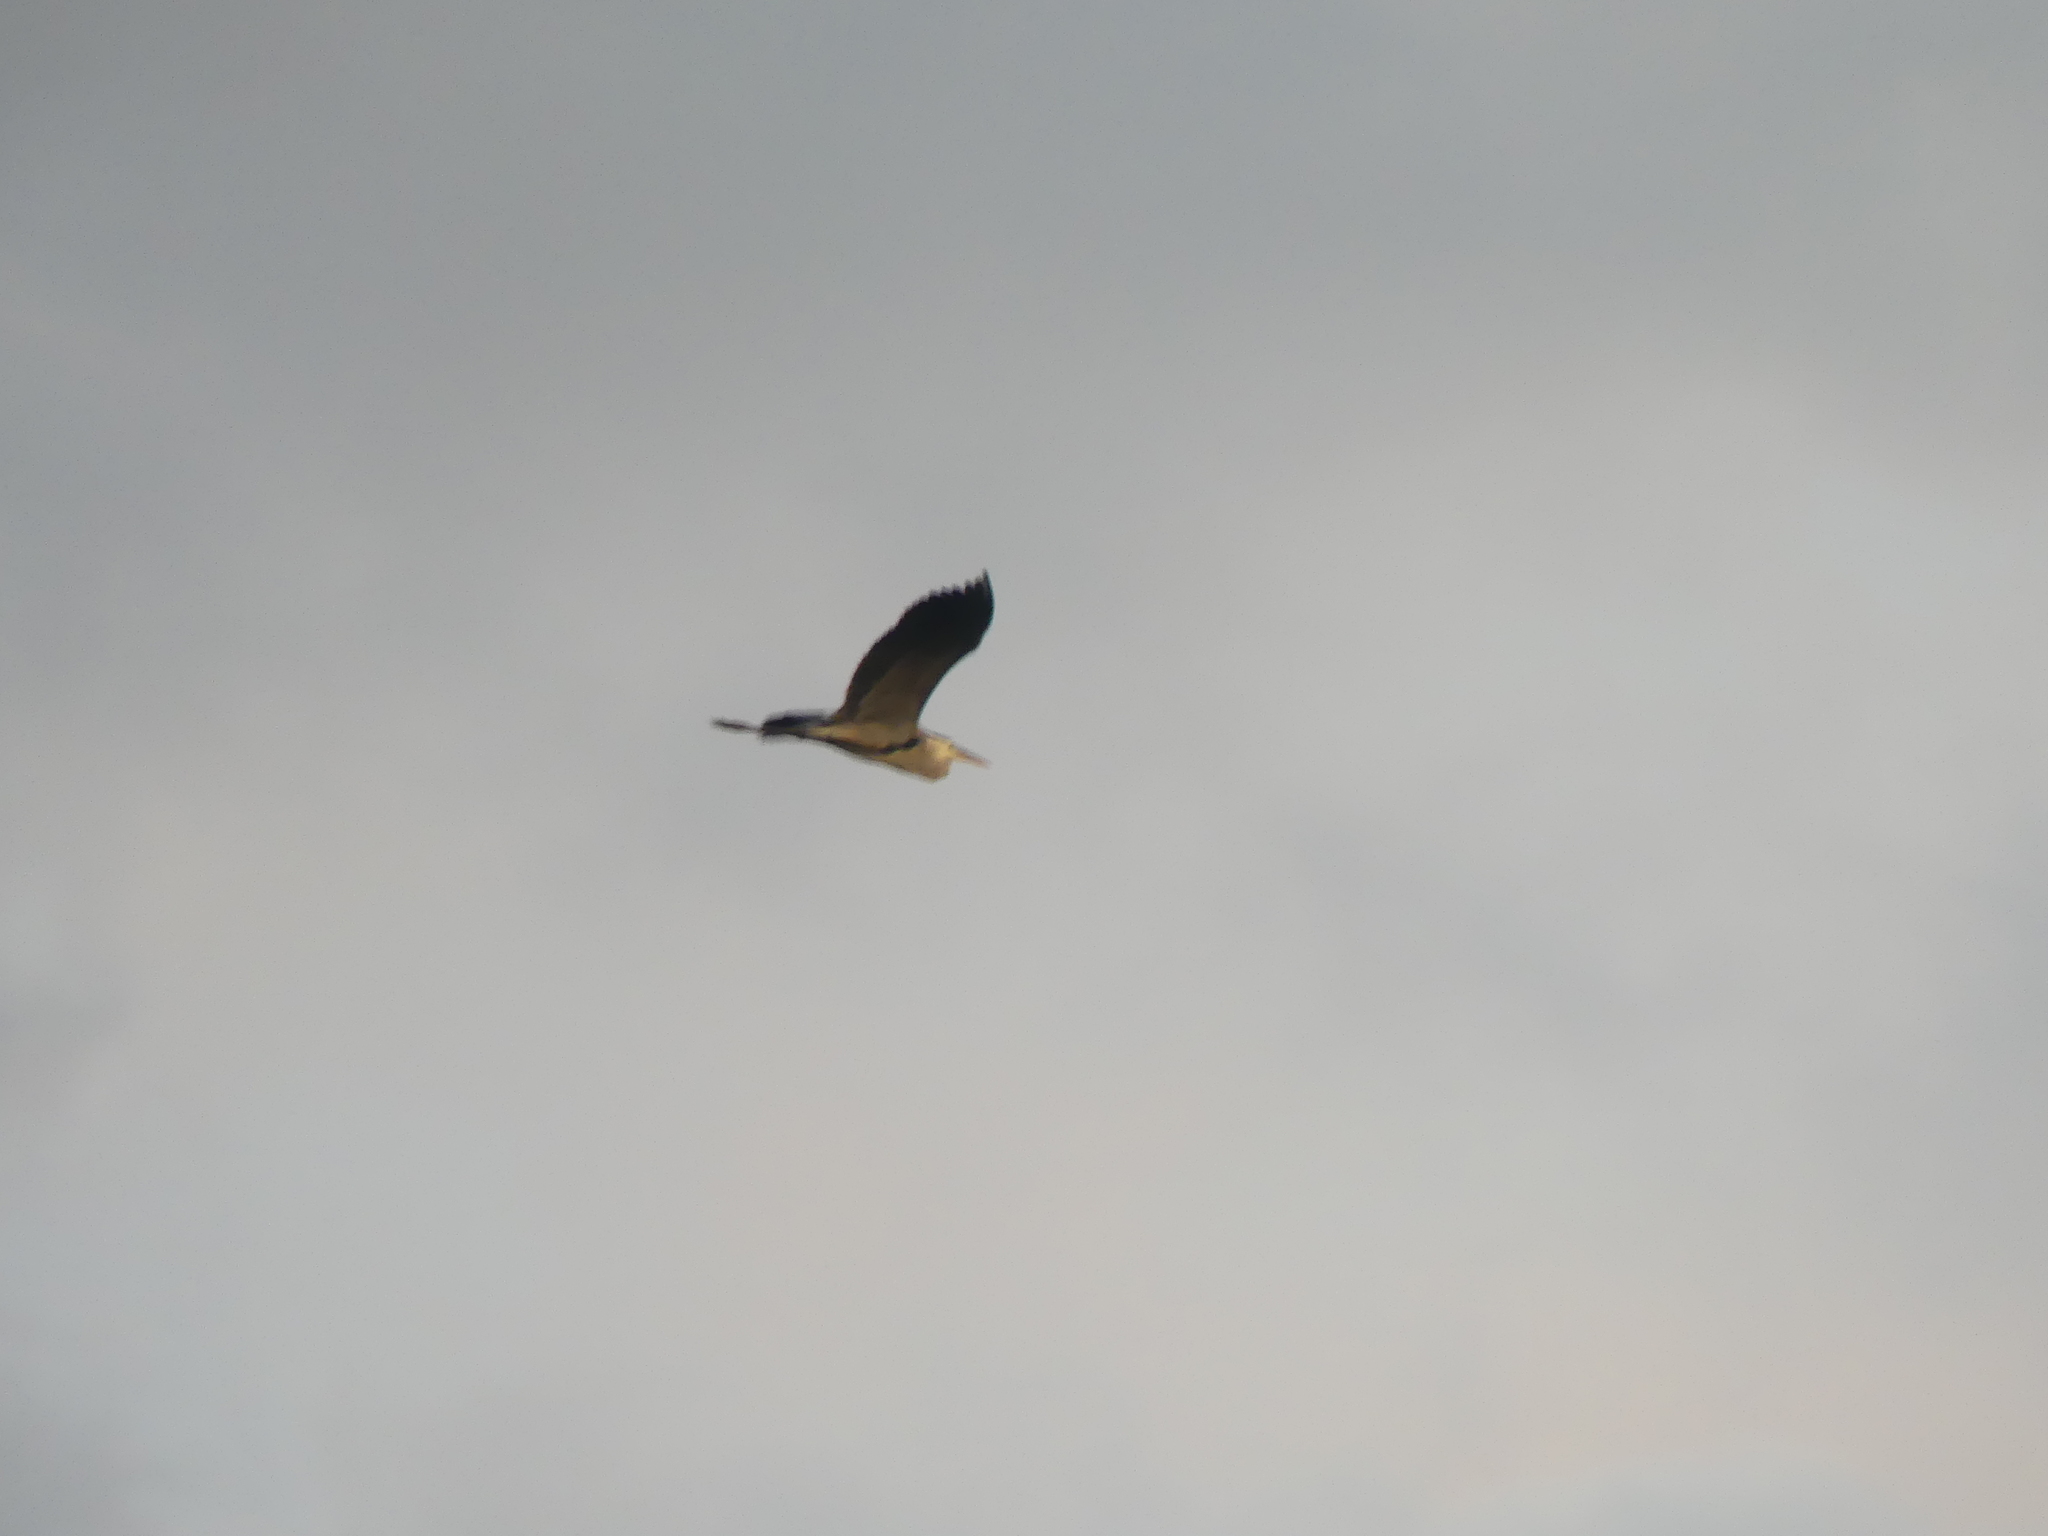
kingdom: Animalia
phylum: Chordata
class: Aves
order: Pelecaniformes
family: Ardeidae
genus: Ardea
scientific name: Ardea herodias
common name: Great blue heron
